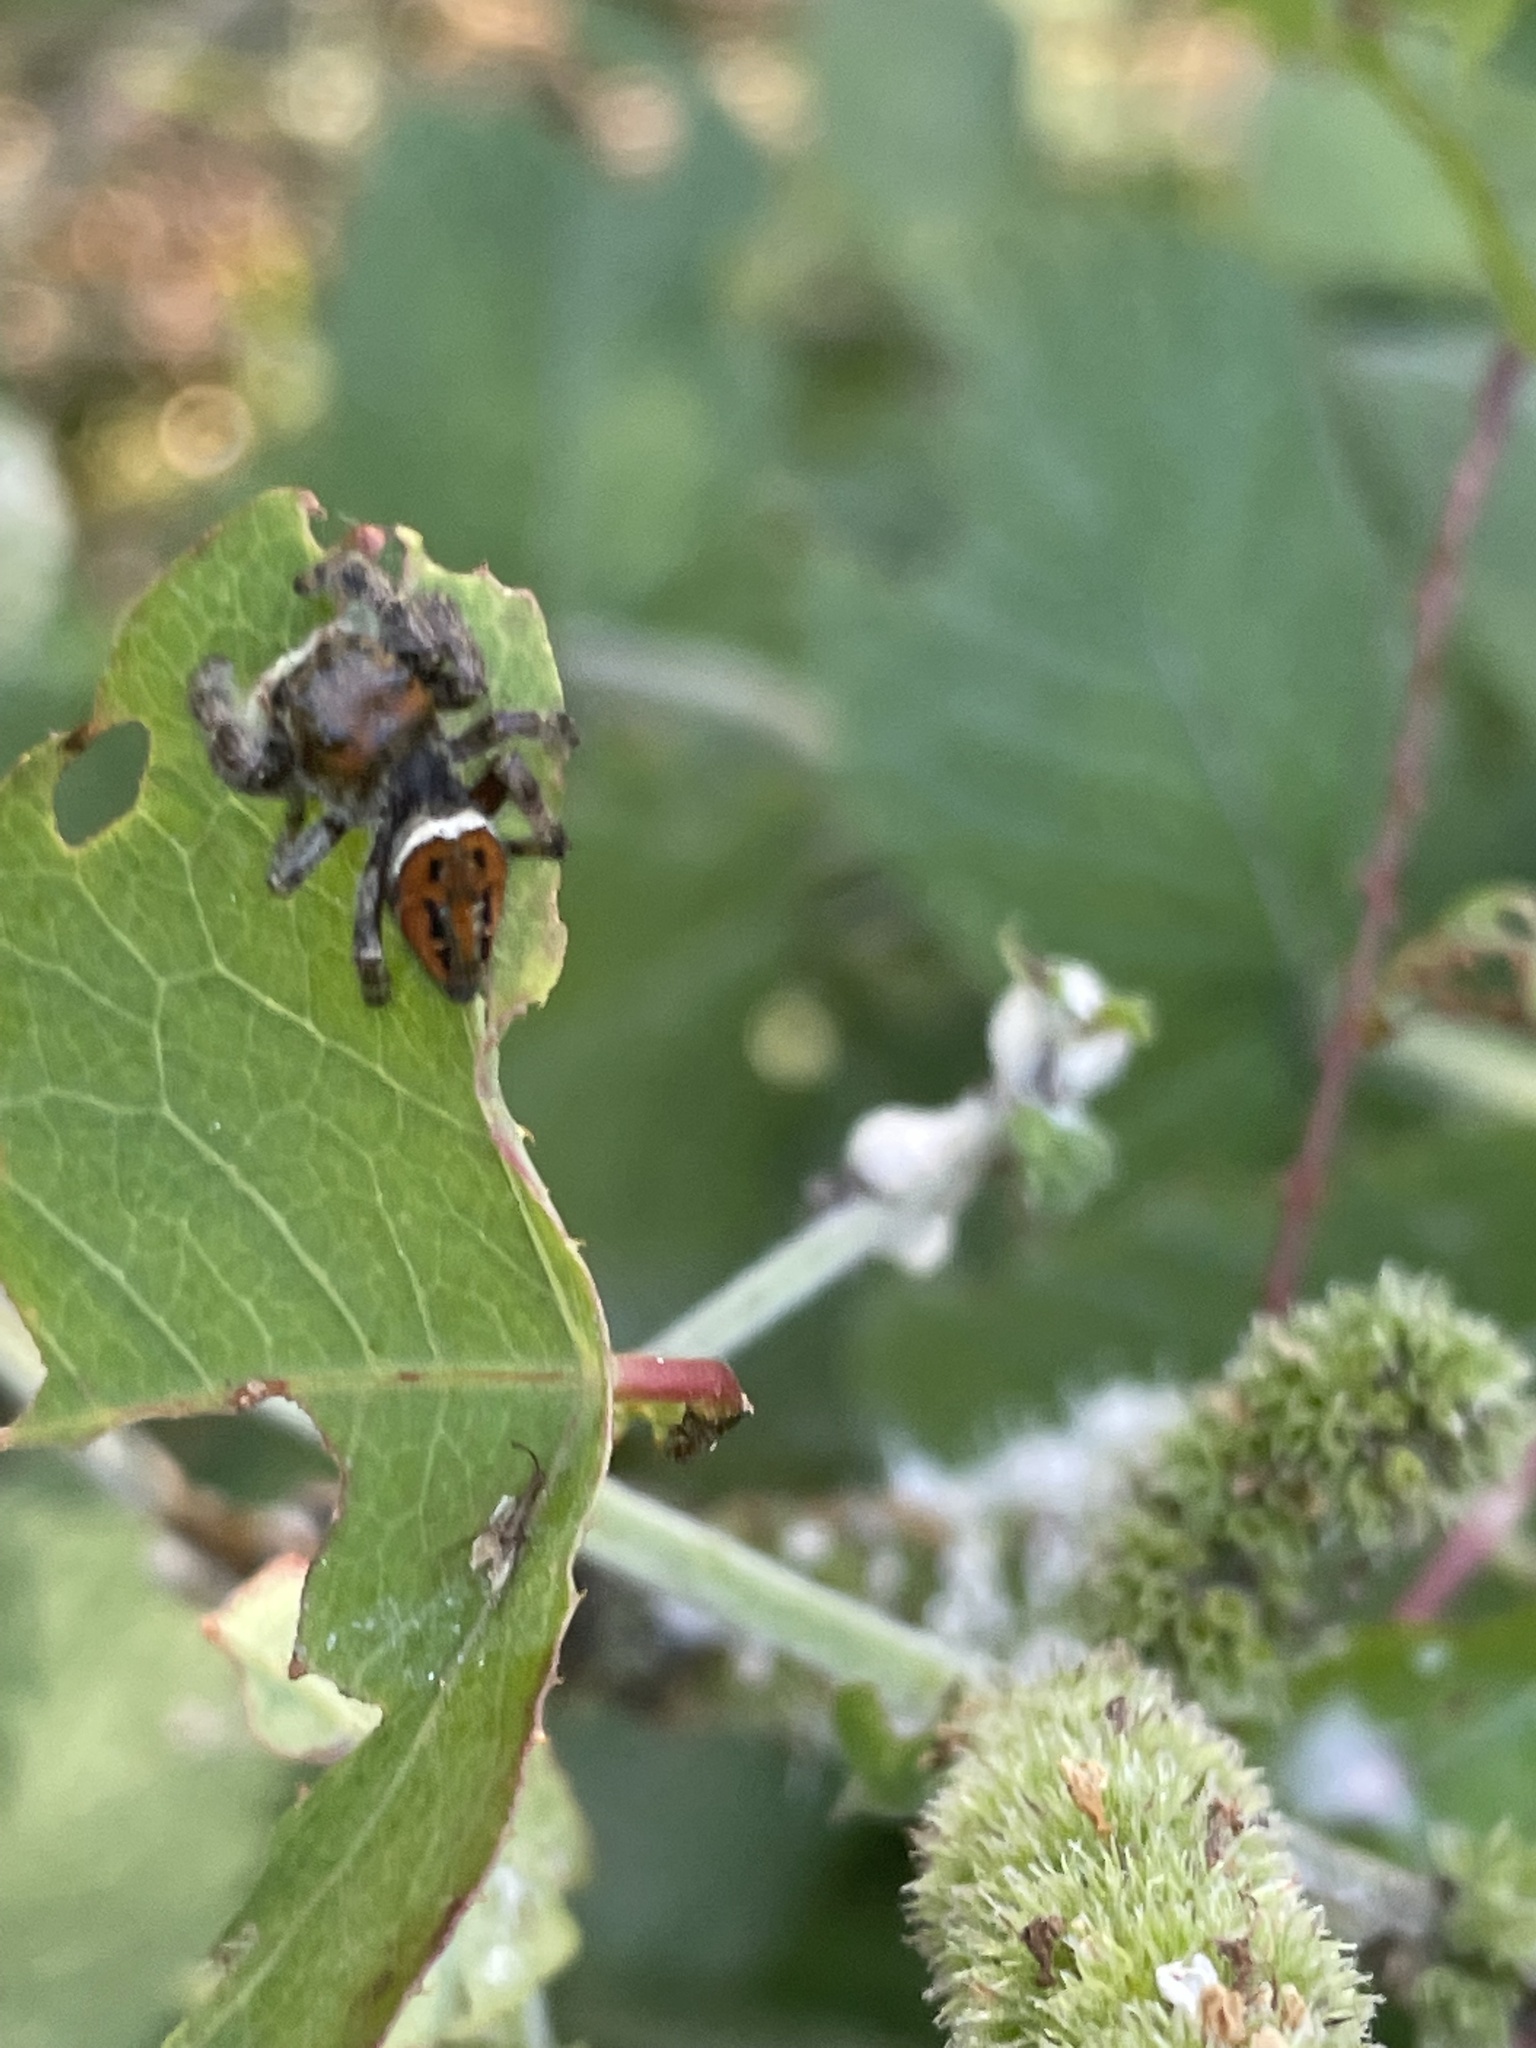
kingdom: Animalia
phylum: Arthropoda
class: Arachnida
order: Araneae
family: Salticidae
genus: Phidippus
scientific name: Phidippus clarus
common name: Brilliant jumping spider
